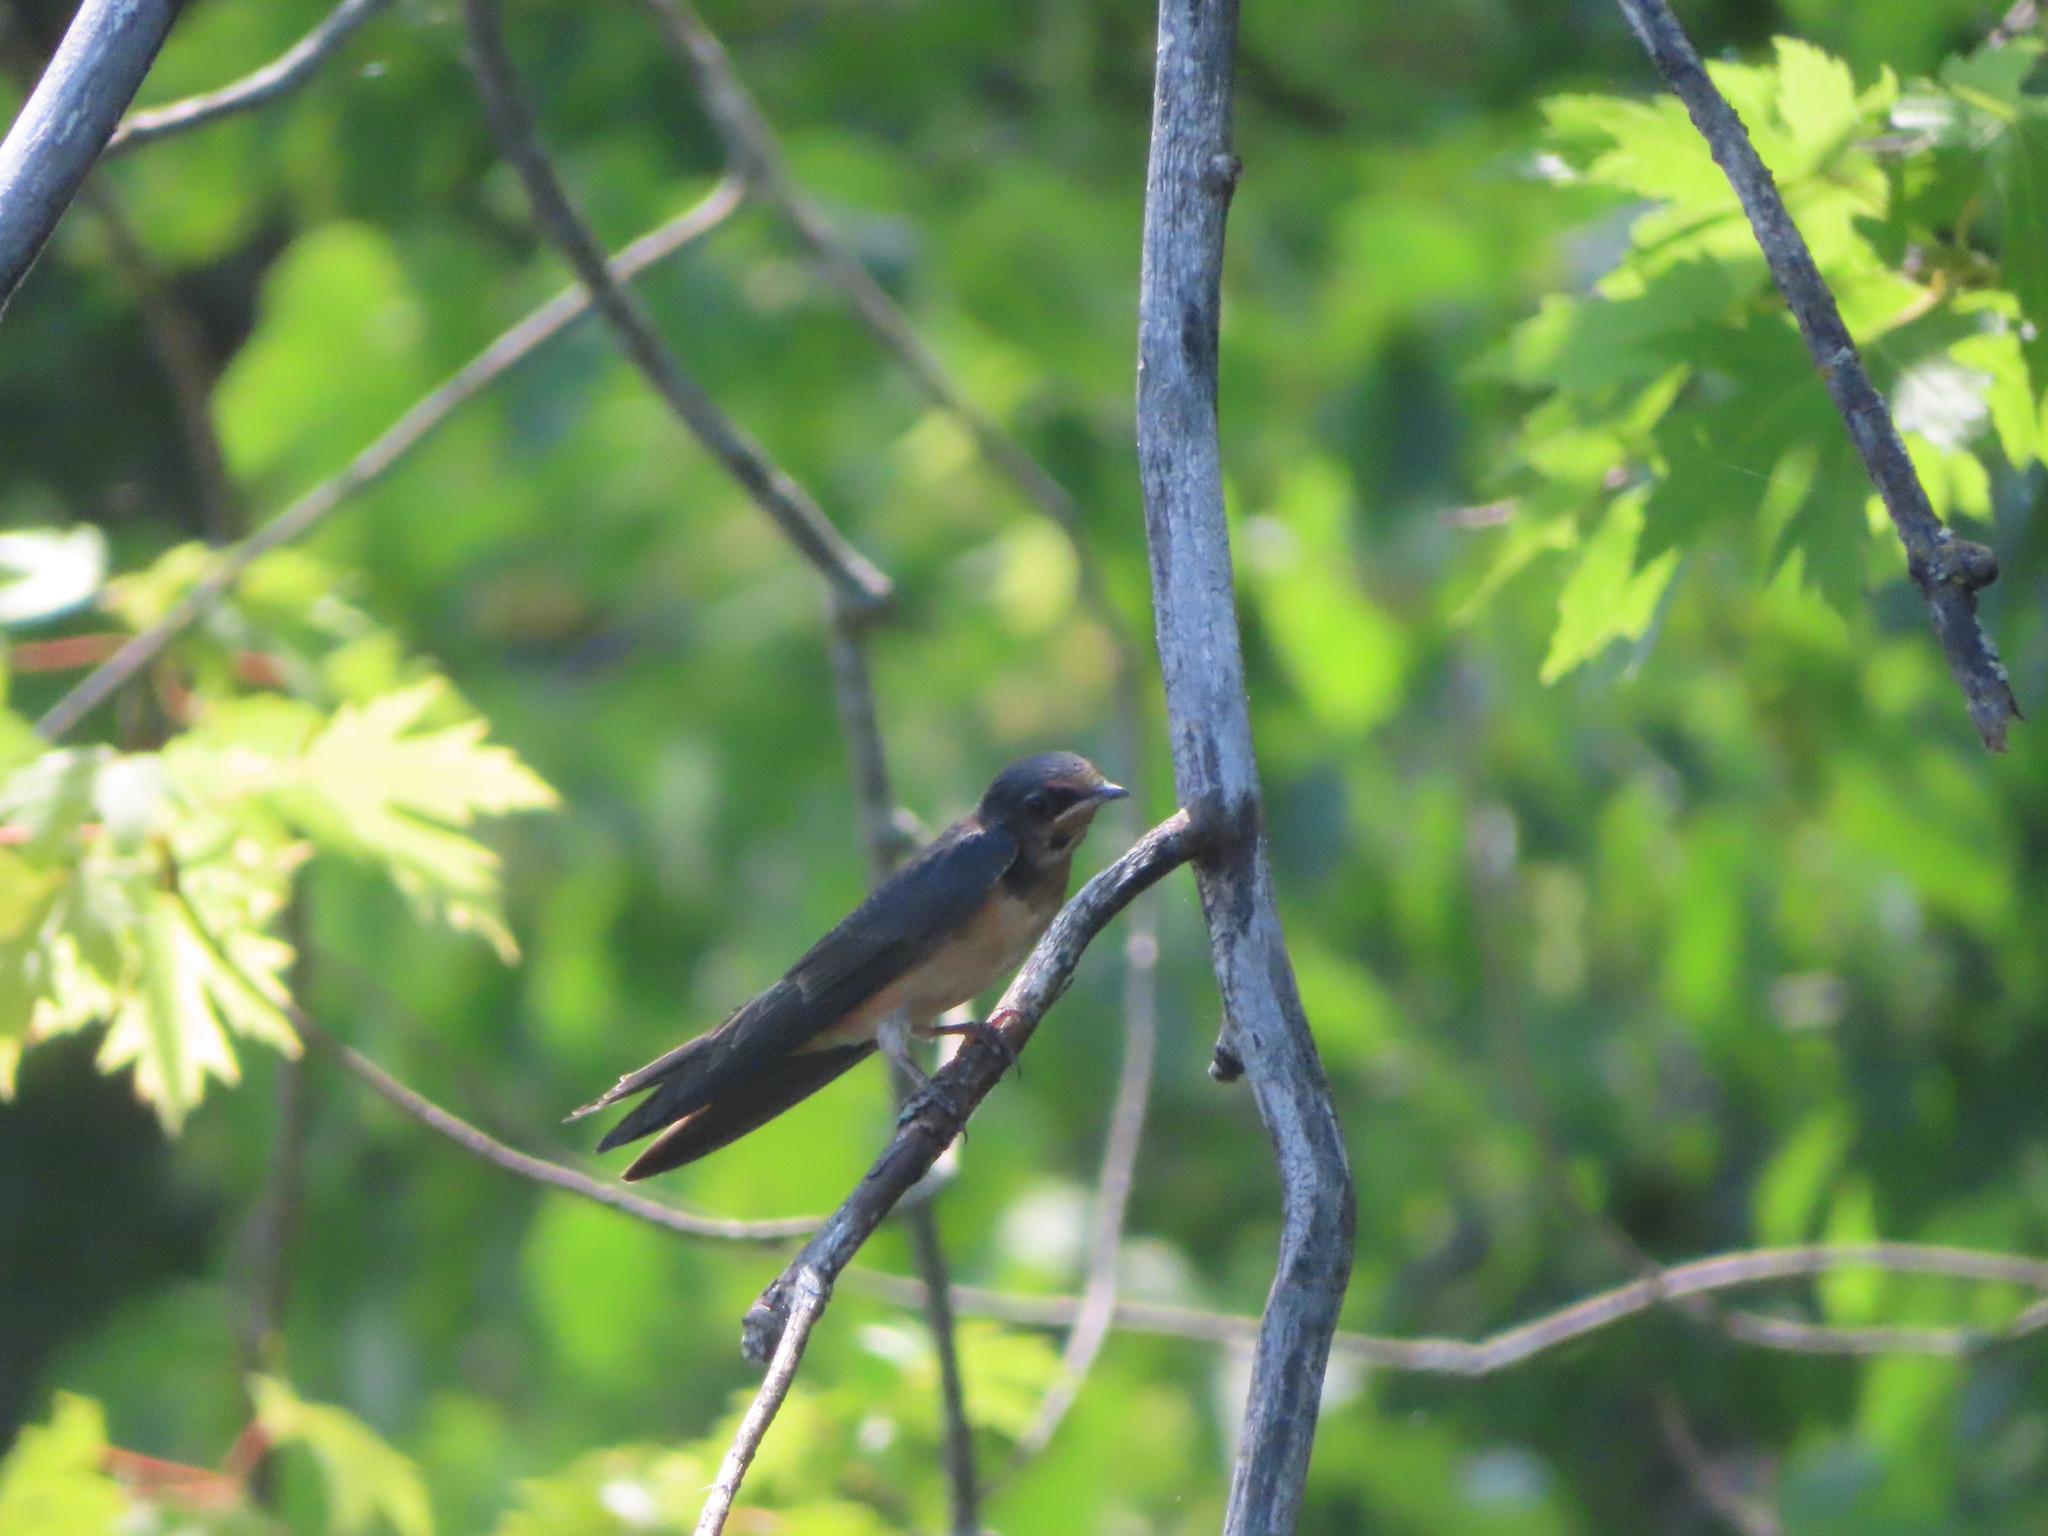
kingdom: Animalia
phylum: Chordata
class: Aves
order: Passeriformes
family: Hirundinidae
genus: Hirundo
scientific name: Hirundo rustica
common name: Barn swallow
